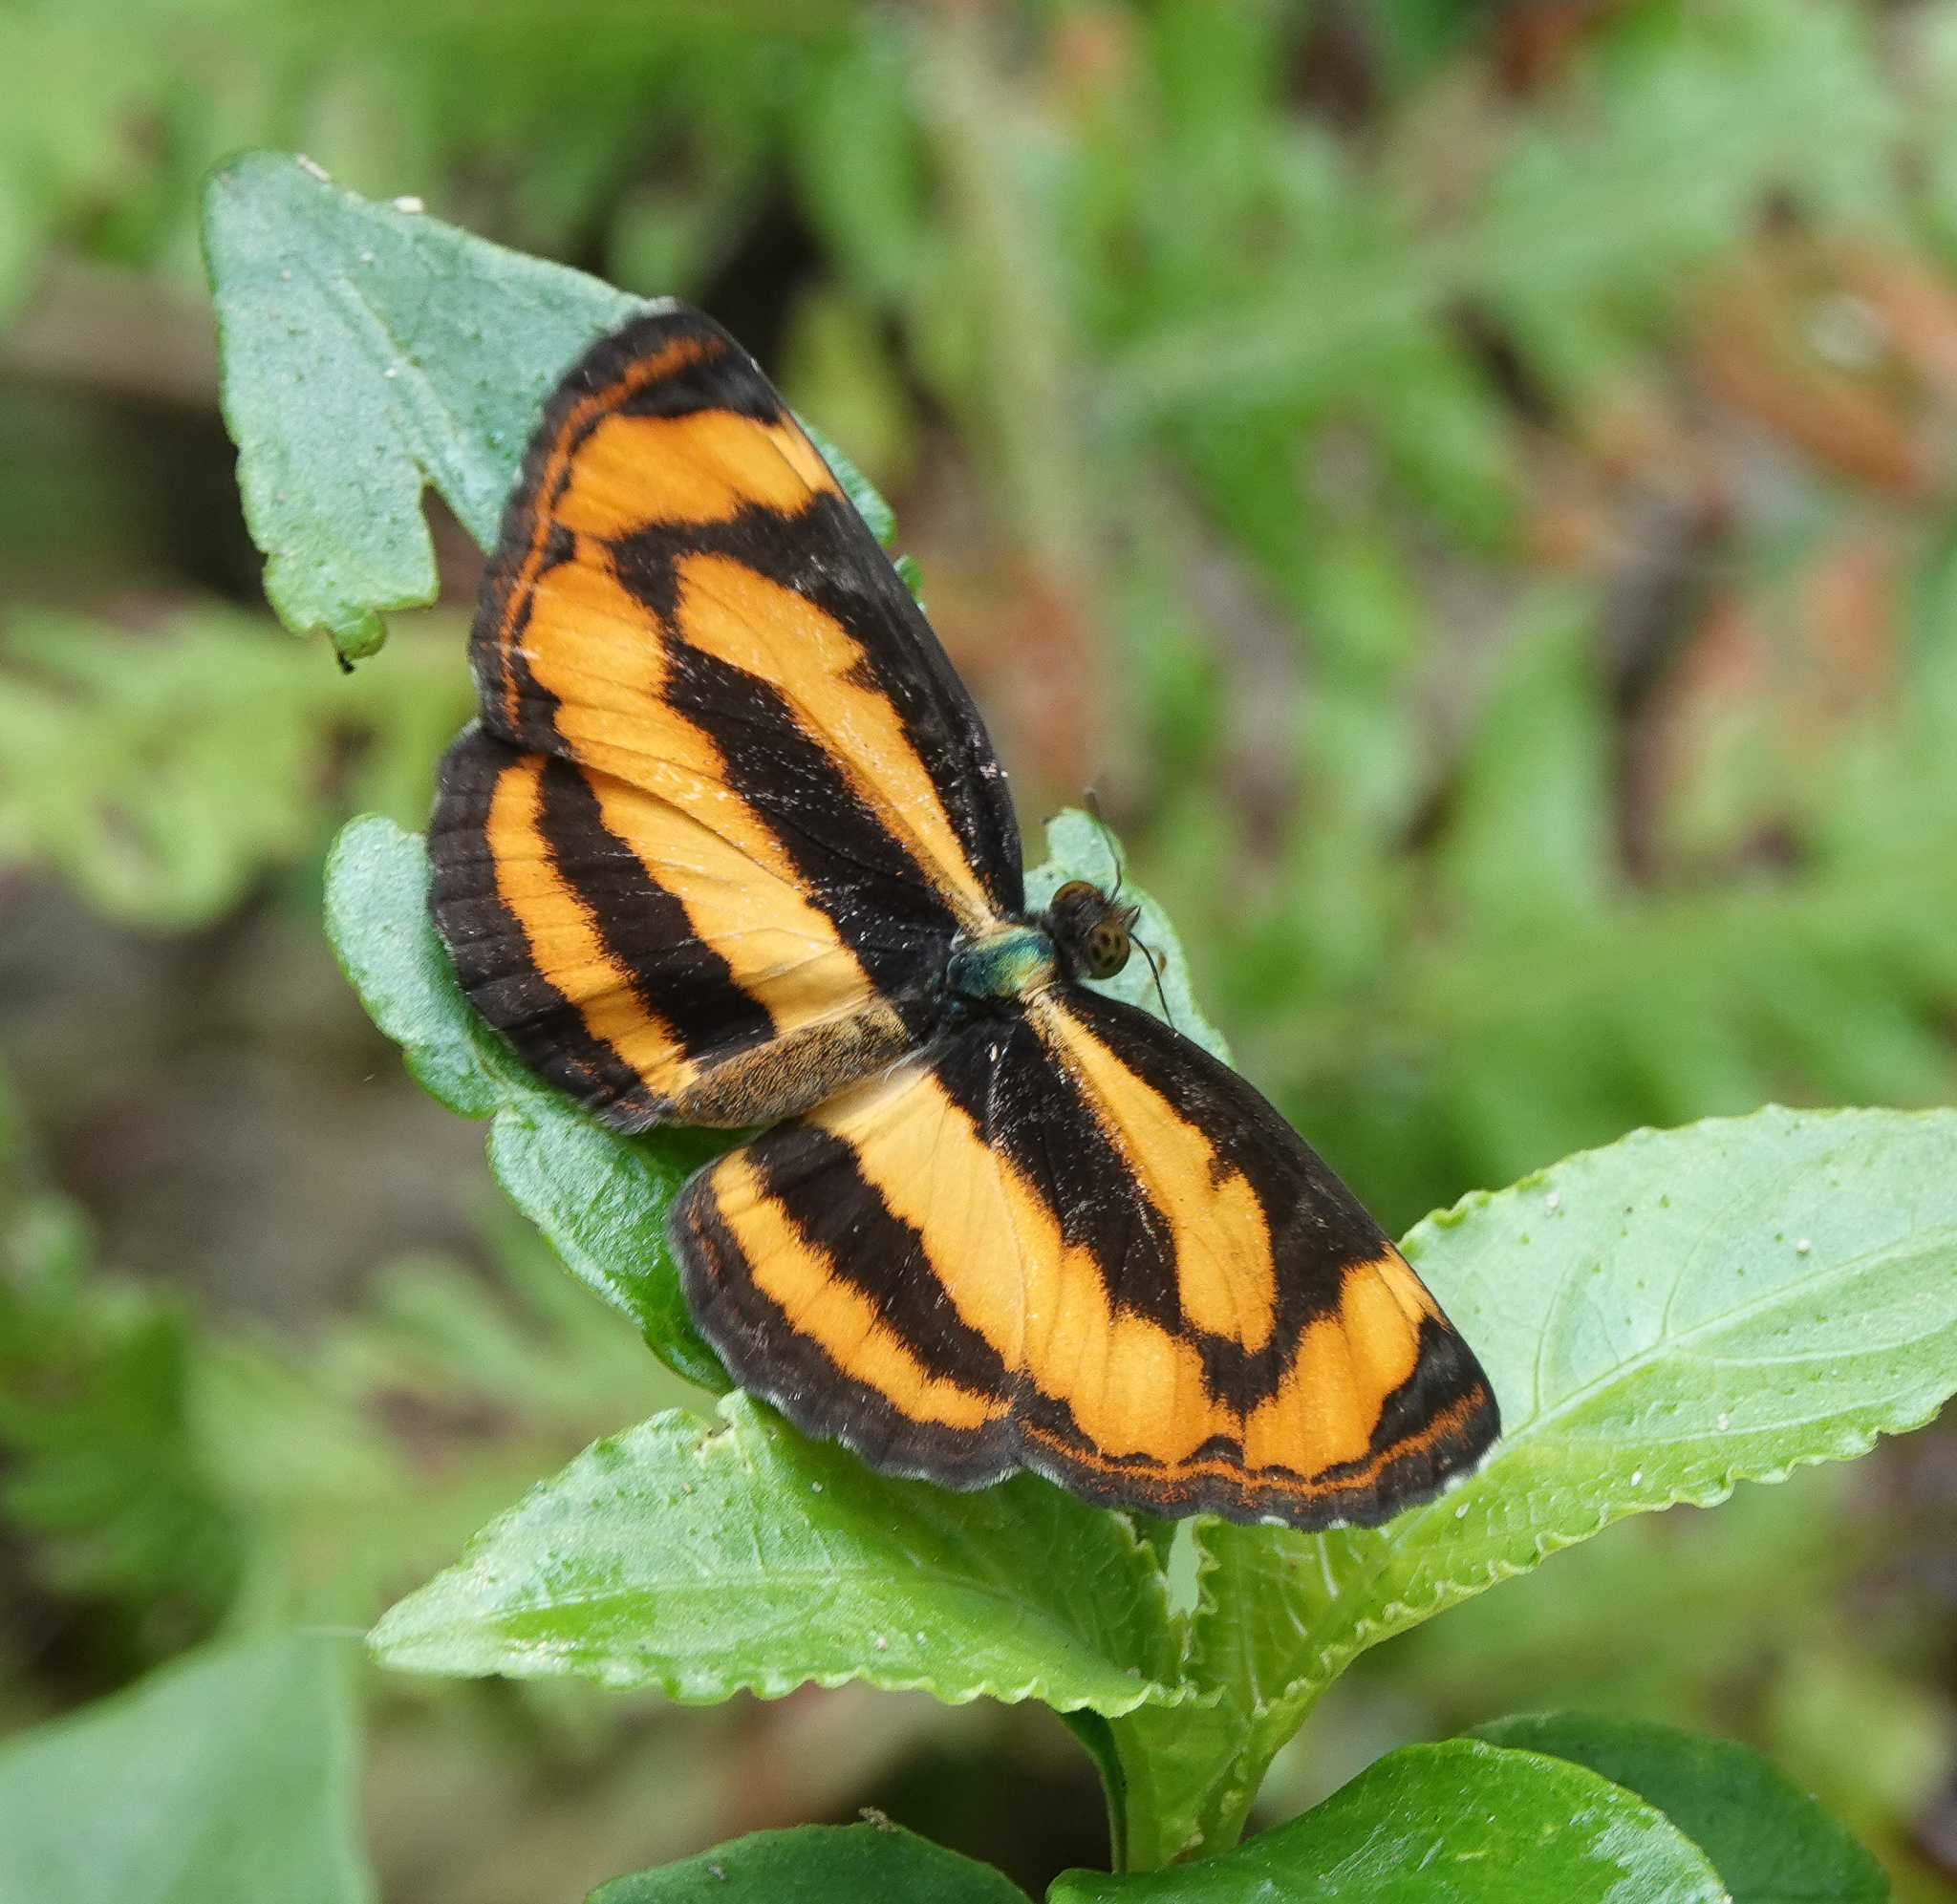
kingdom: Animalia
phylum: Arthropoda
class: Insecta
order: Lepidoptera
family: Nymphalidae
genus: Pantoporia
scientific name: Pantoporia hordonia
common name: Common lascar
